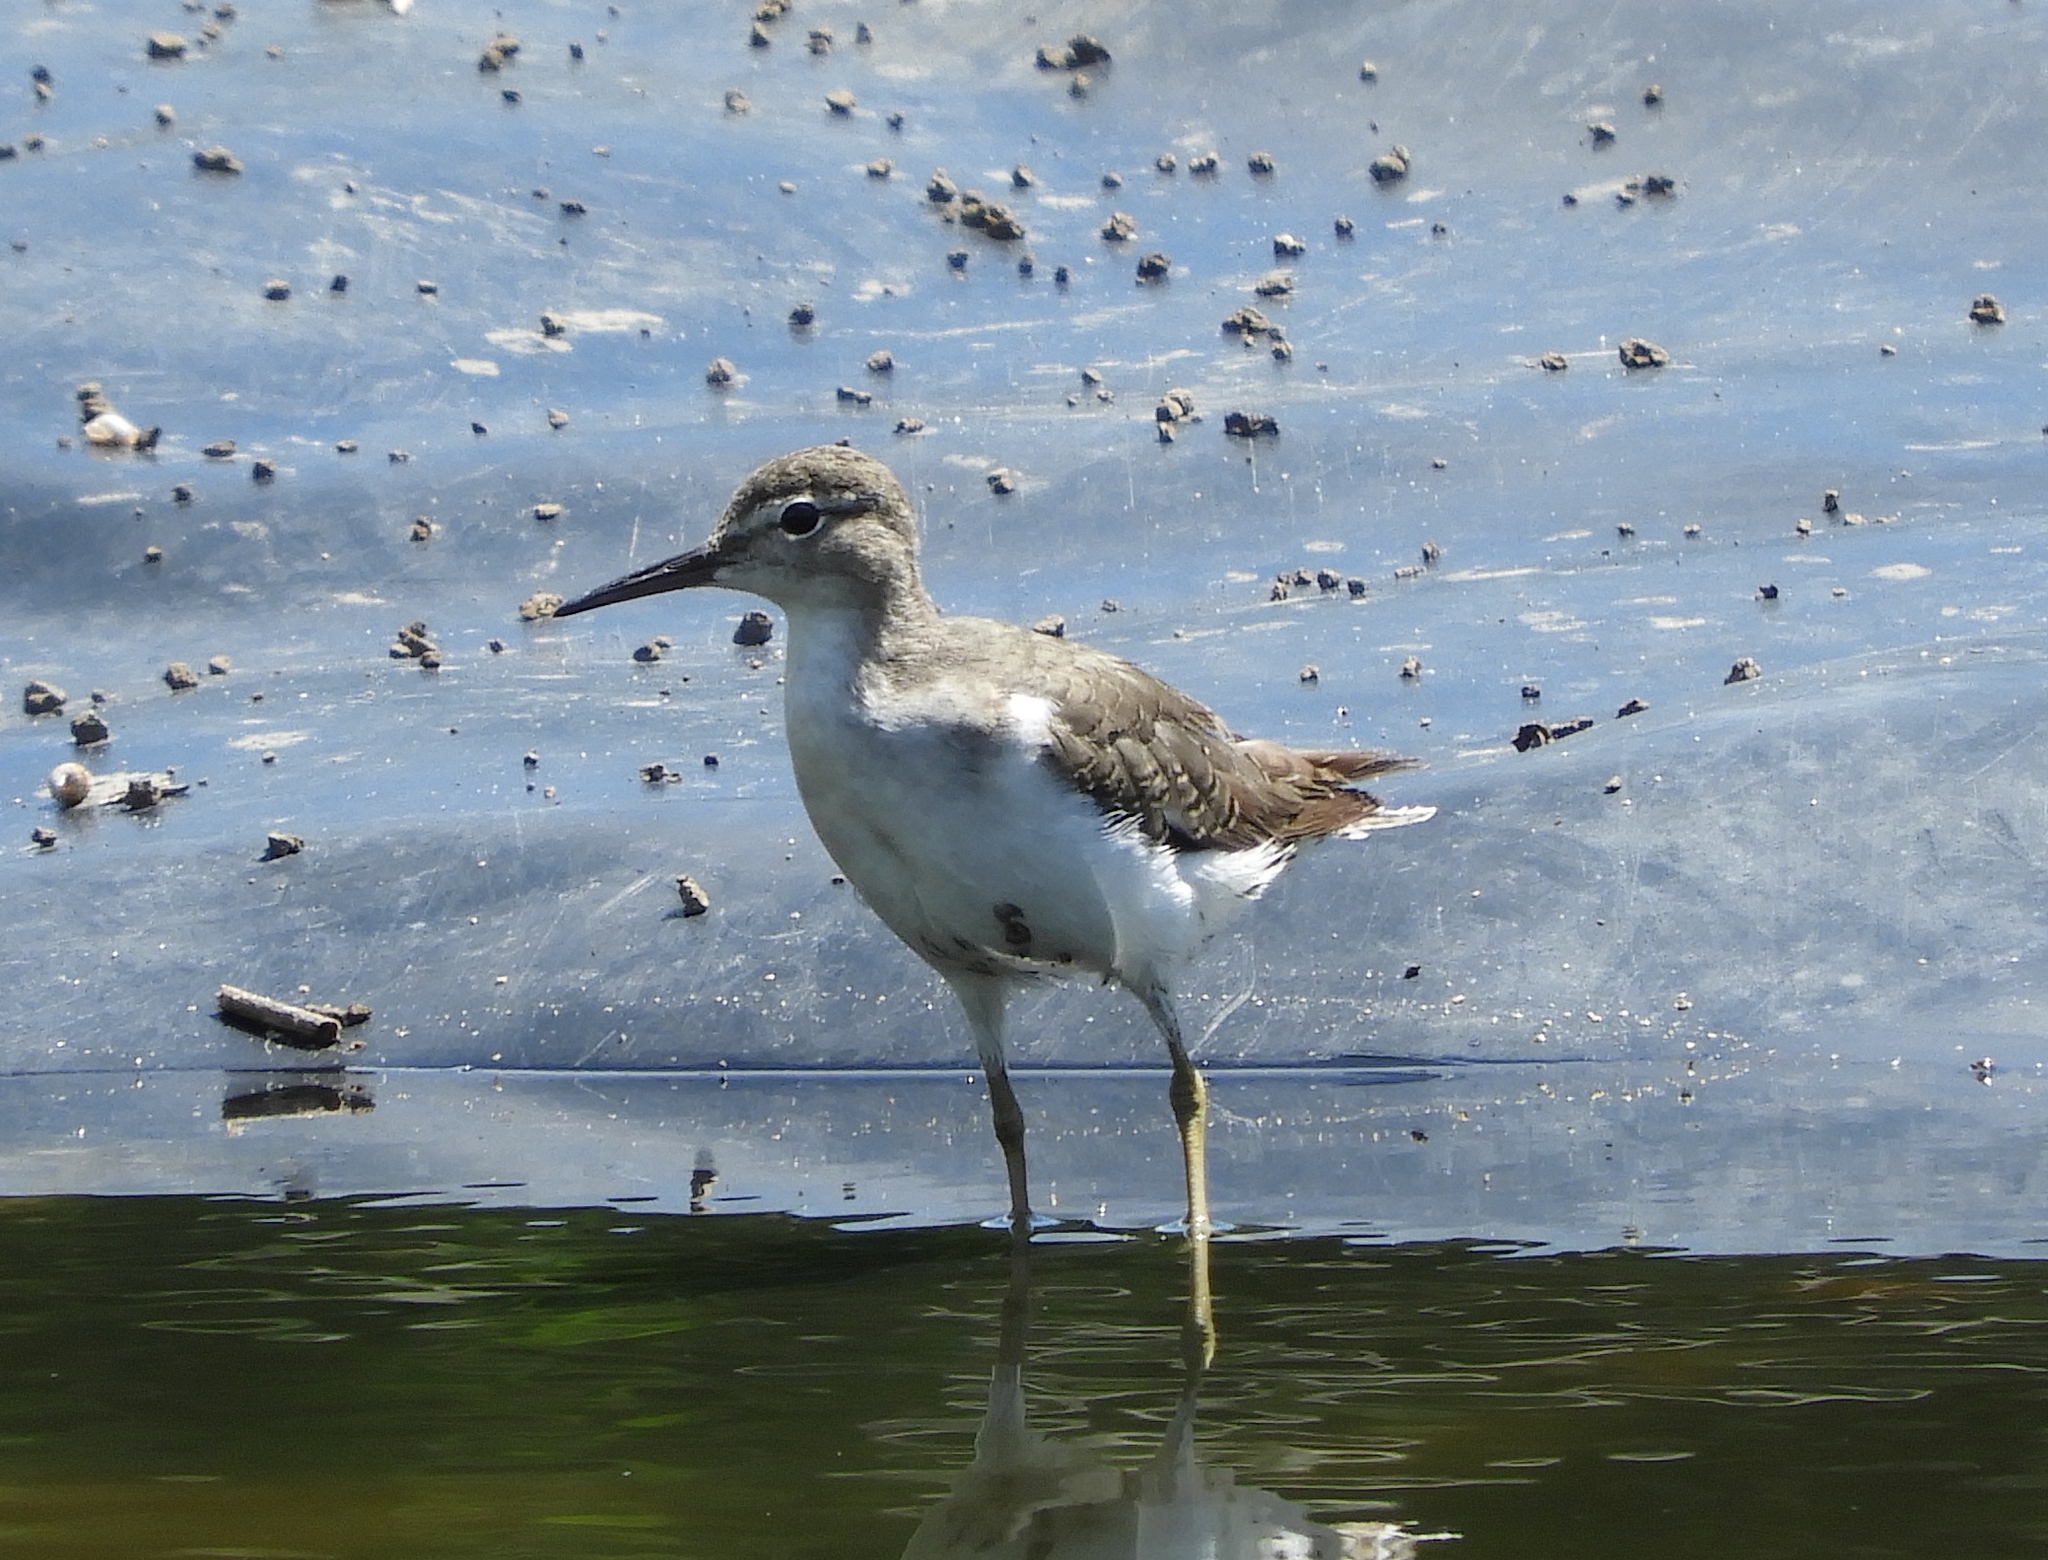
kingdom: Animalia
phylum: Chordata
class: Aves
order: Charadriiformes
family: Scolopacidae
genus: Actitis
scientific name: Actitis macularius
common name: Spotted sandpiper
